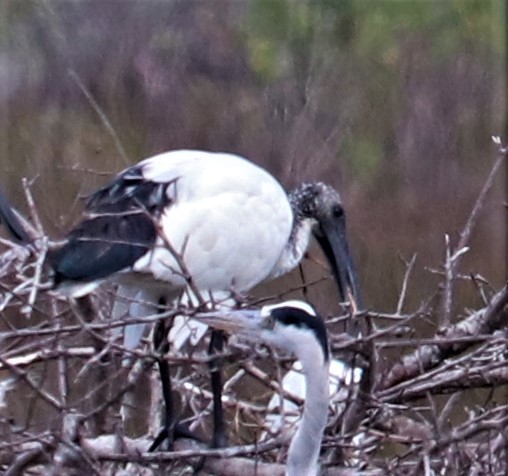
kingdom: Animalia
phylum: Chordata
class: Aves
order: Pelecaniformes
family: Threskiornithidae
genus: Threskiornis
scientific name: Threskiornis aethiopicus
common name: Sacred ibis
